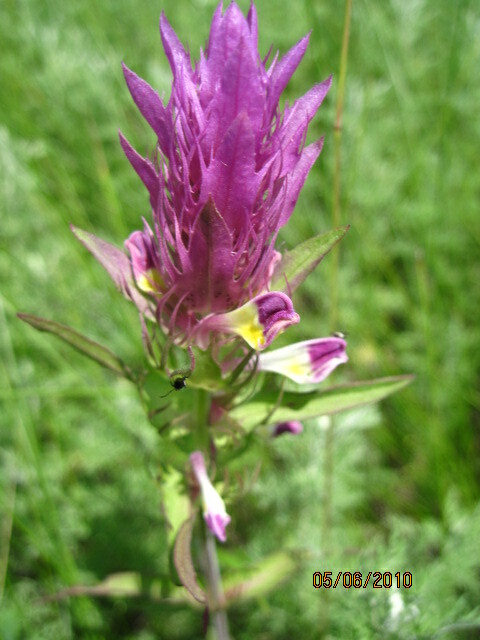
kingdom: Plantae
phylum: Tracheophyta
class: Magnoliopsida
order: Lamiales
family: Orobanchaceae
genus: Melampyrum
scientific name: Melampyrum arvense
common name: Field cow-wheat
